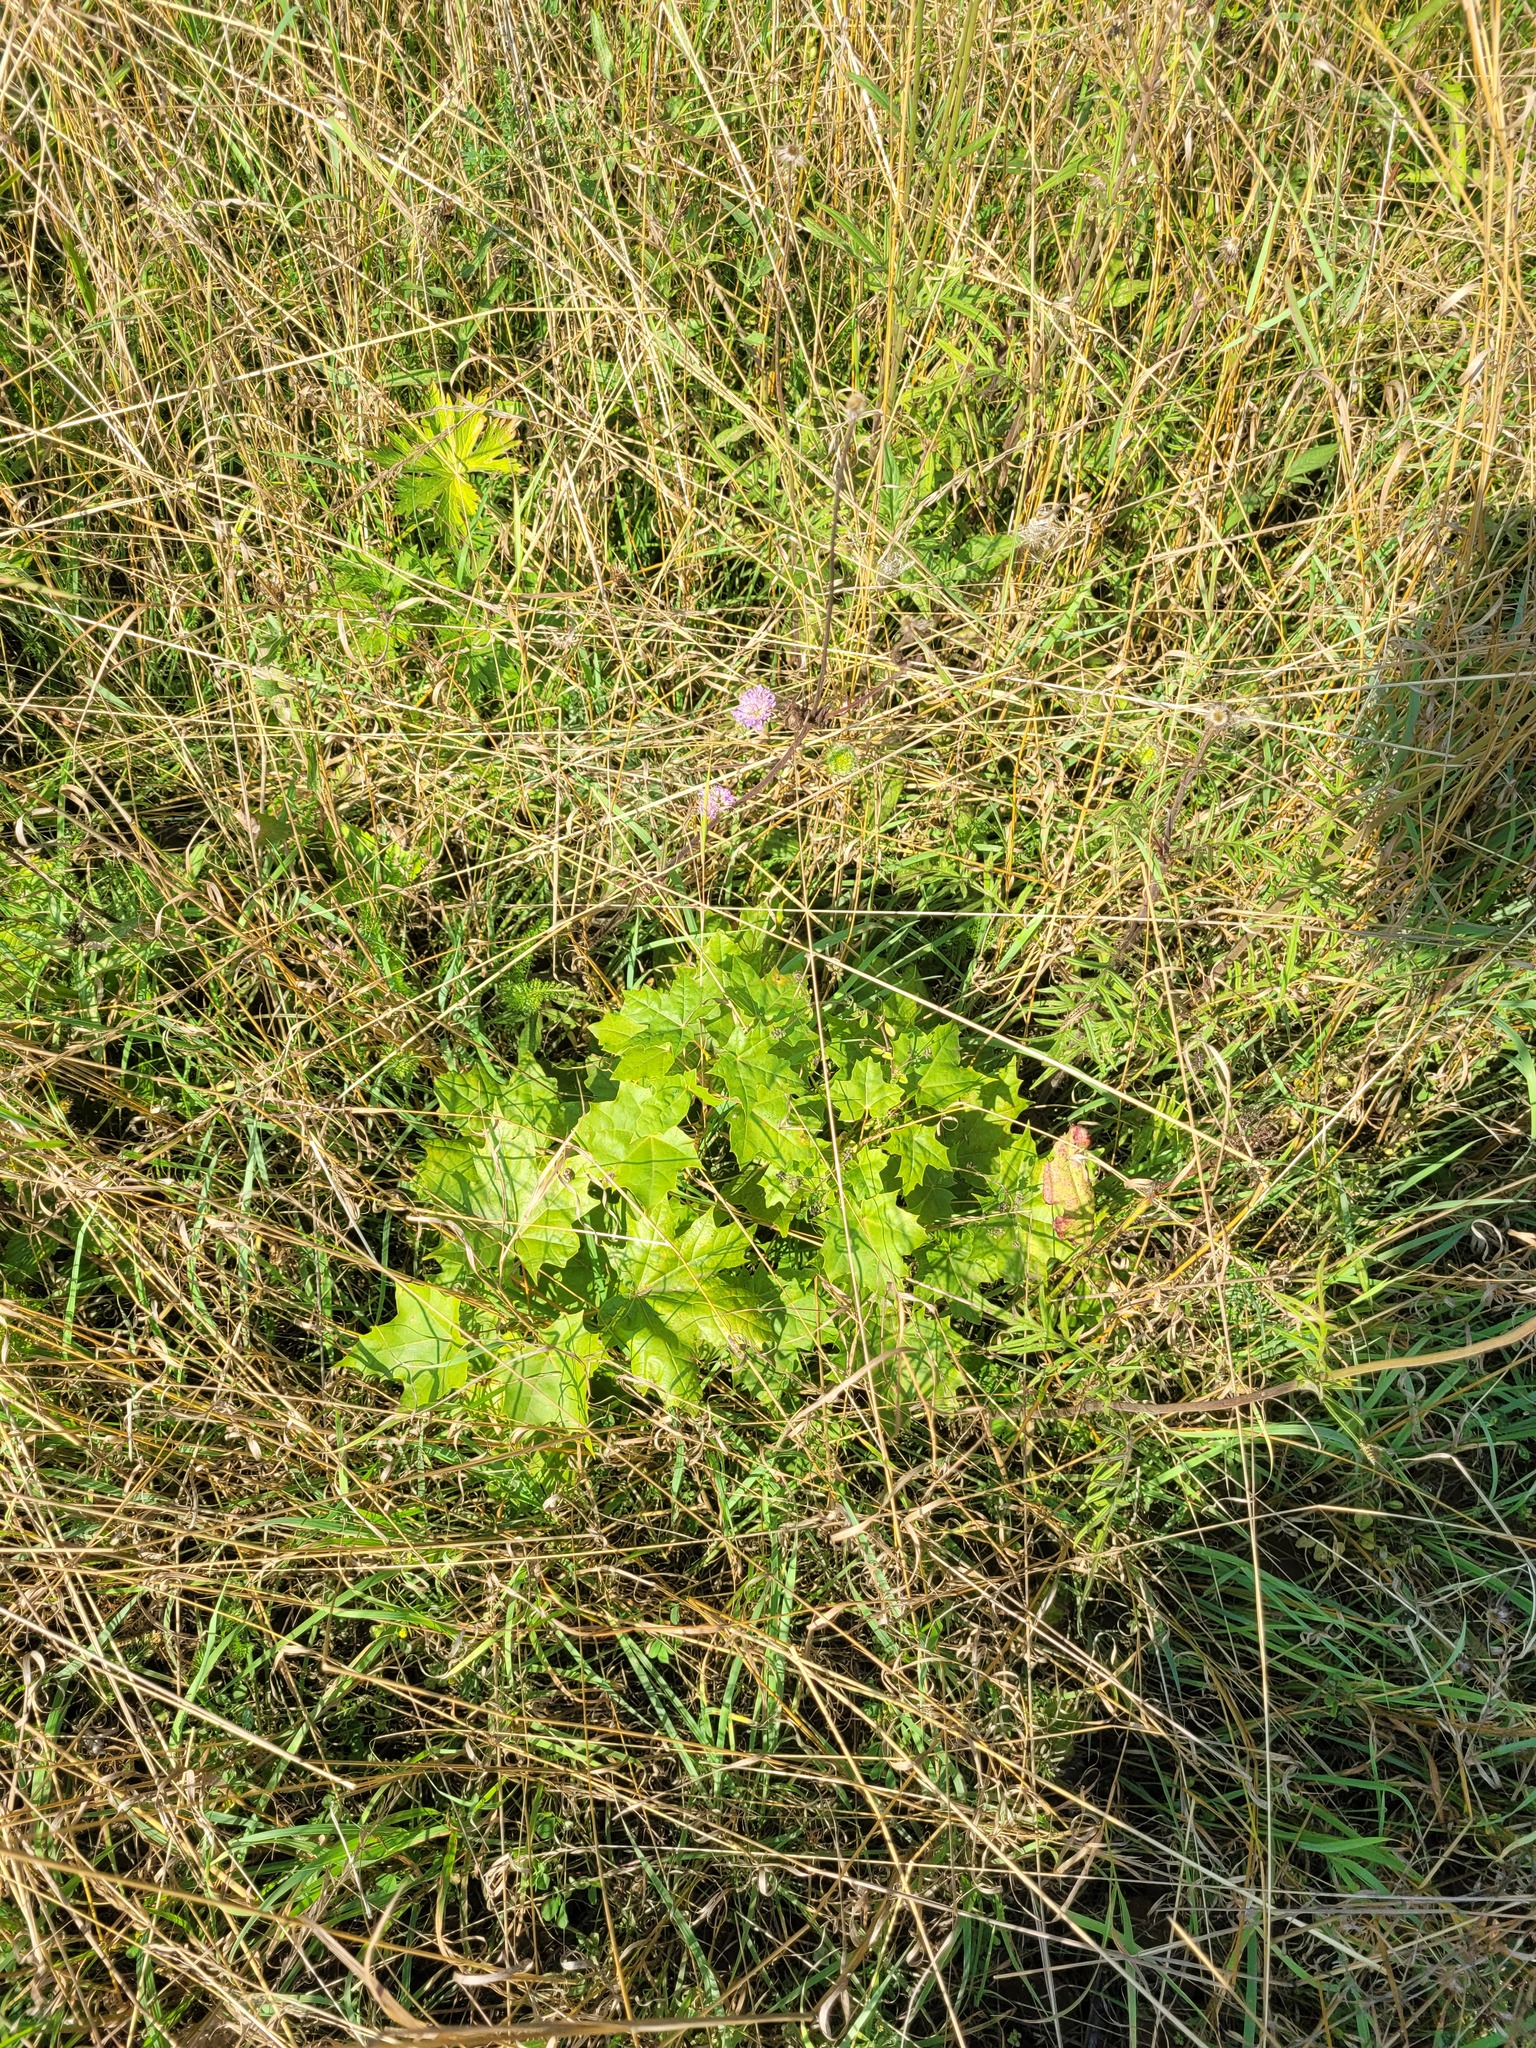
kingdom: Plantae
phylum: Tracheophyta
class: Magnoliopsida
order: Sapindales
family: Sapindaceae
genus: Acer
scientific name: Acer platanoides
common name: Norway maple
